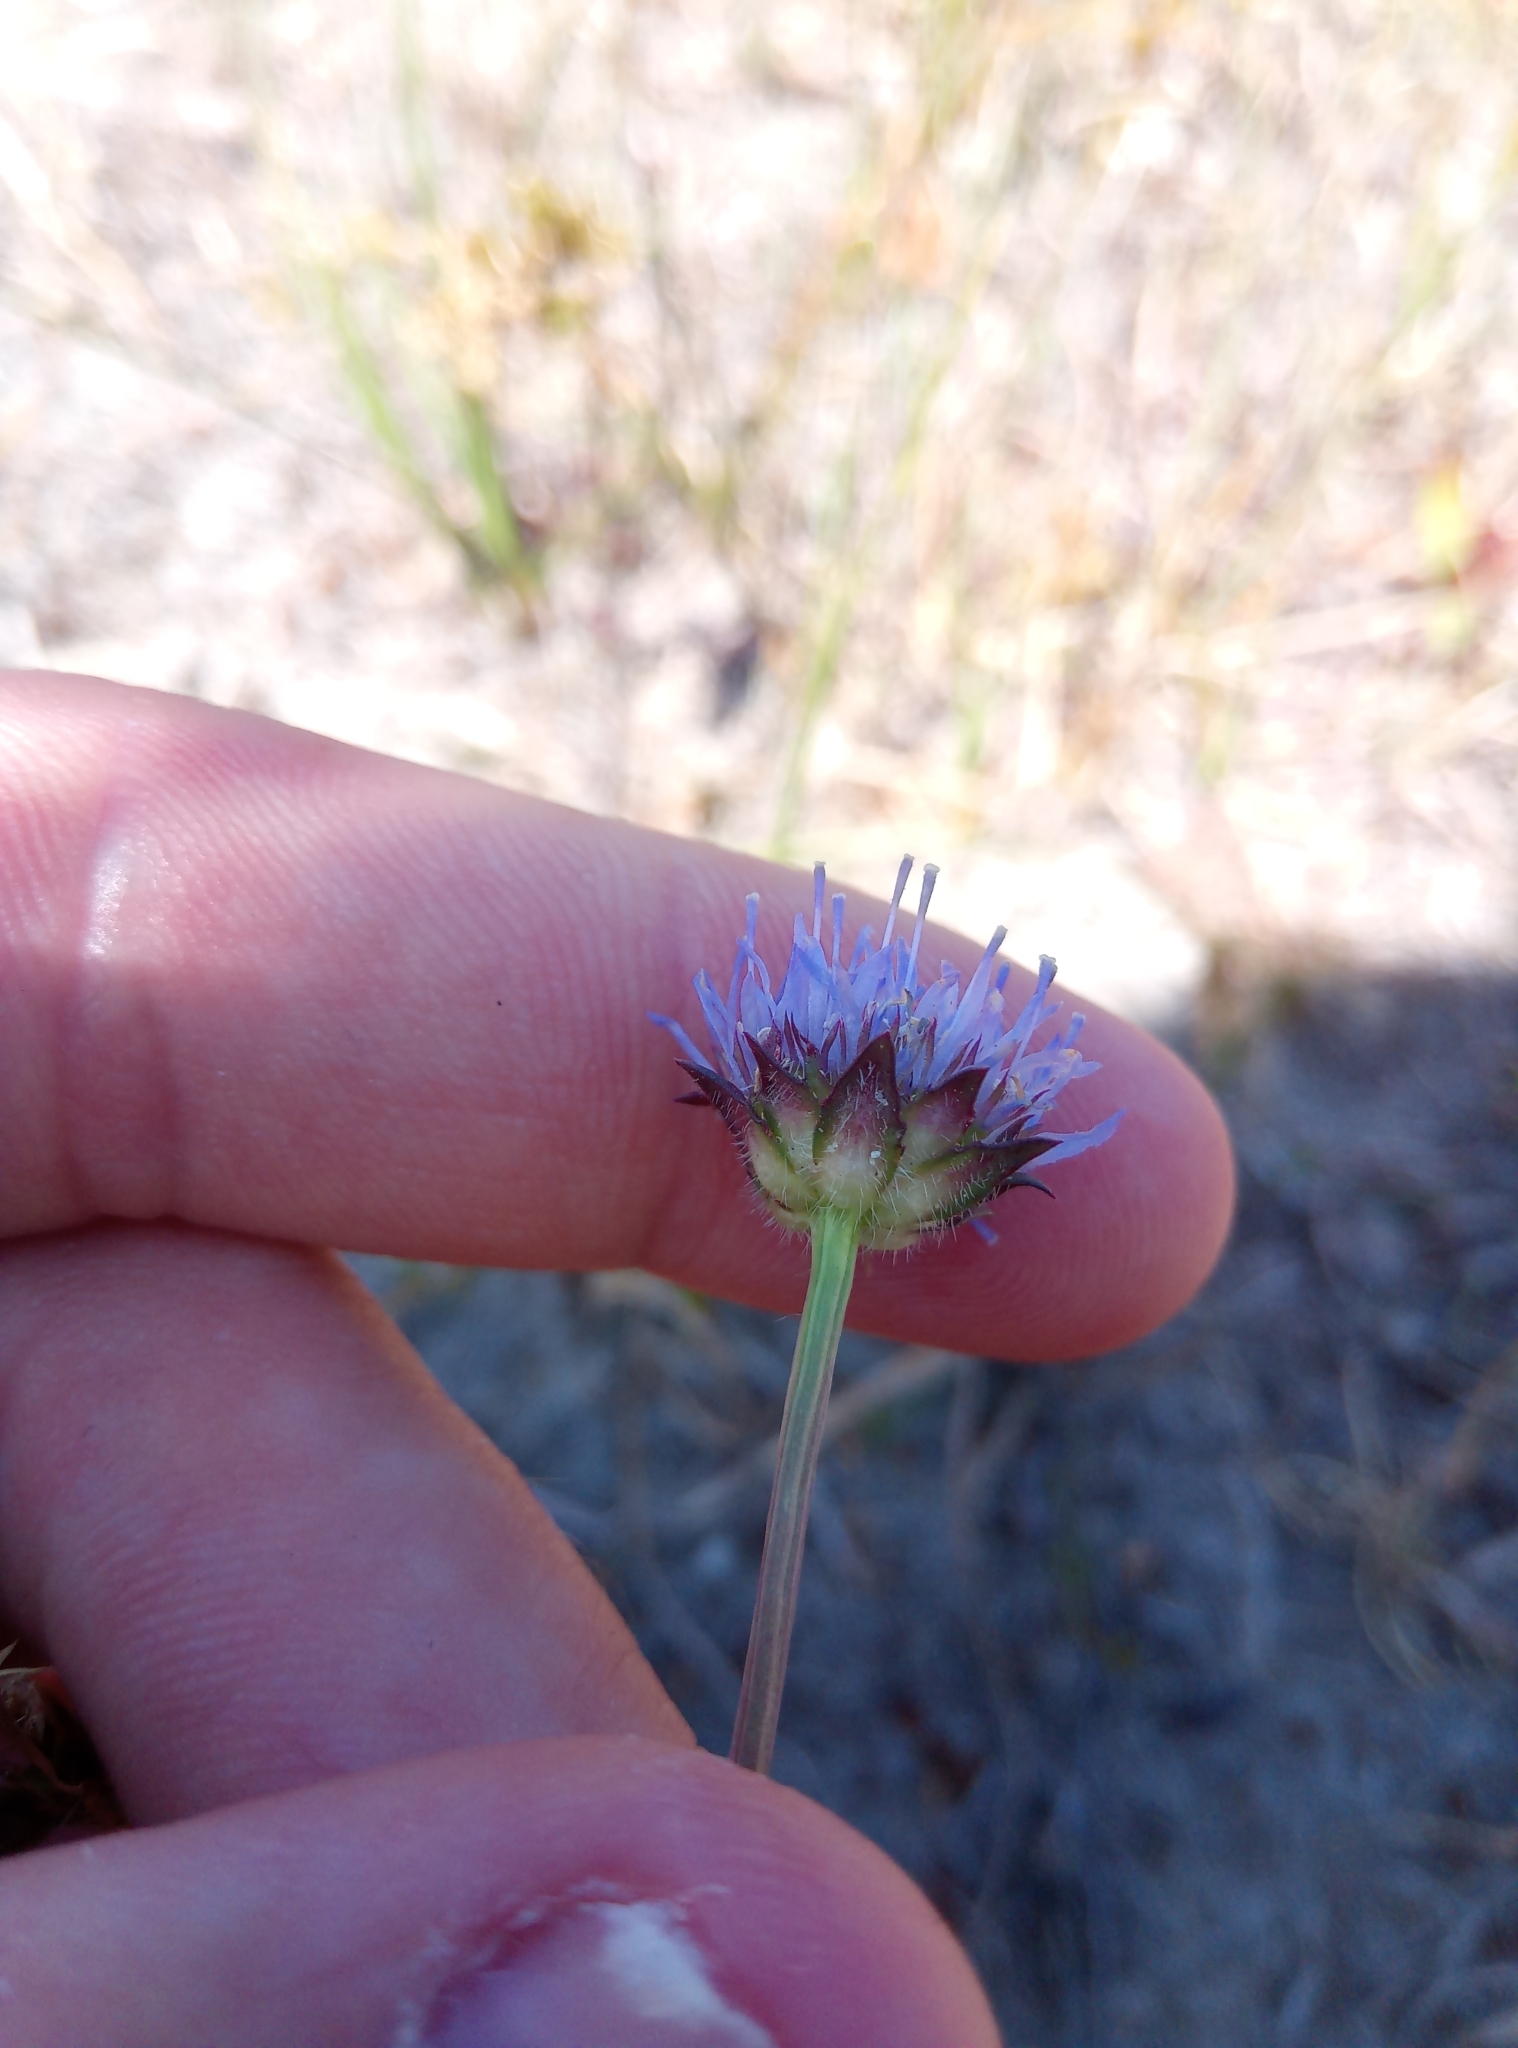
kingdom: Plantae
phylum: Tracheophyta
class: Magnoliopsida
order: Asterales
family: Campanulaceae
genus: Jasione
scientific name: Jasione montana
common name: Sheep's-bit
